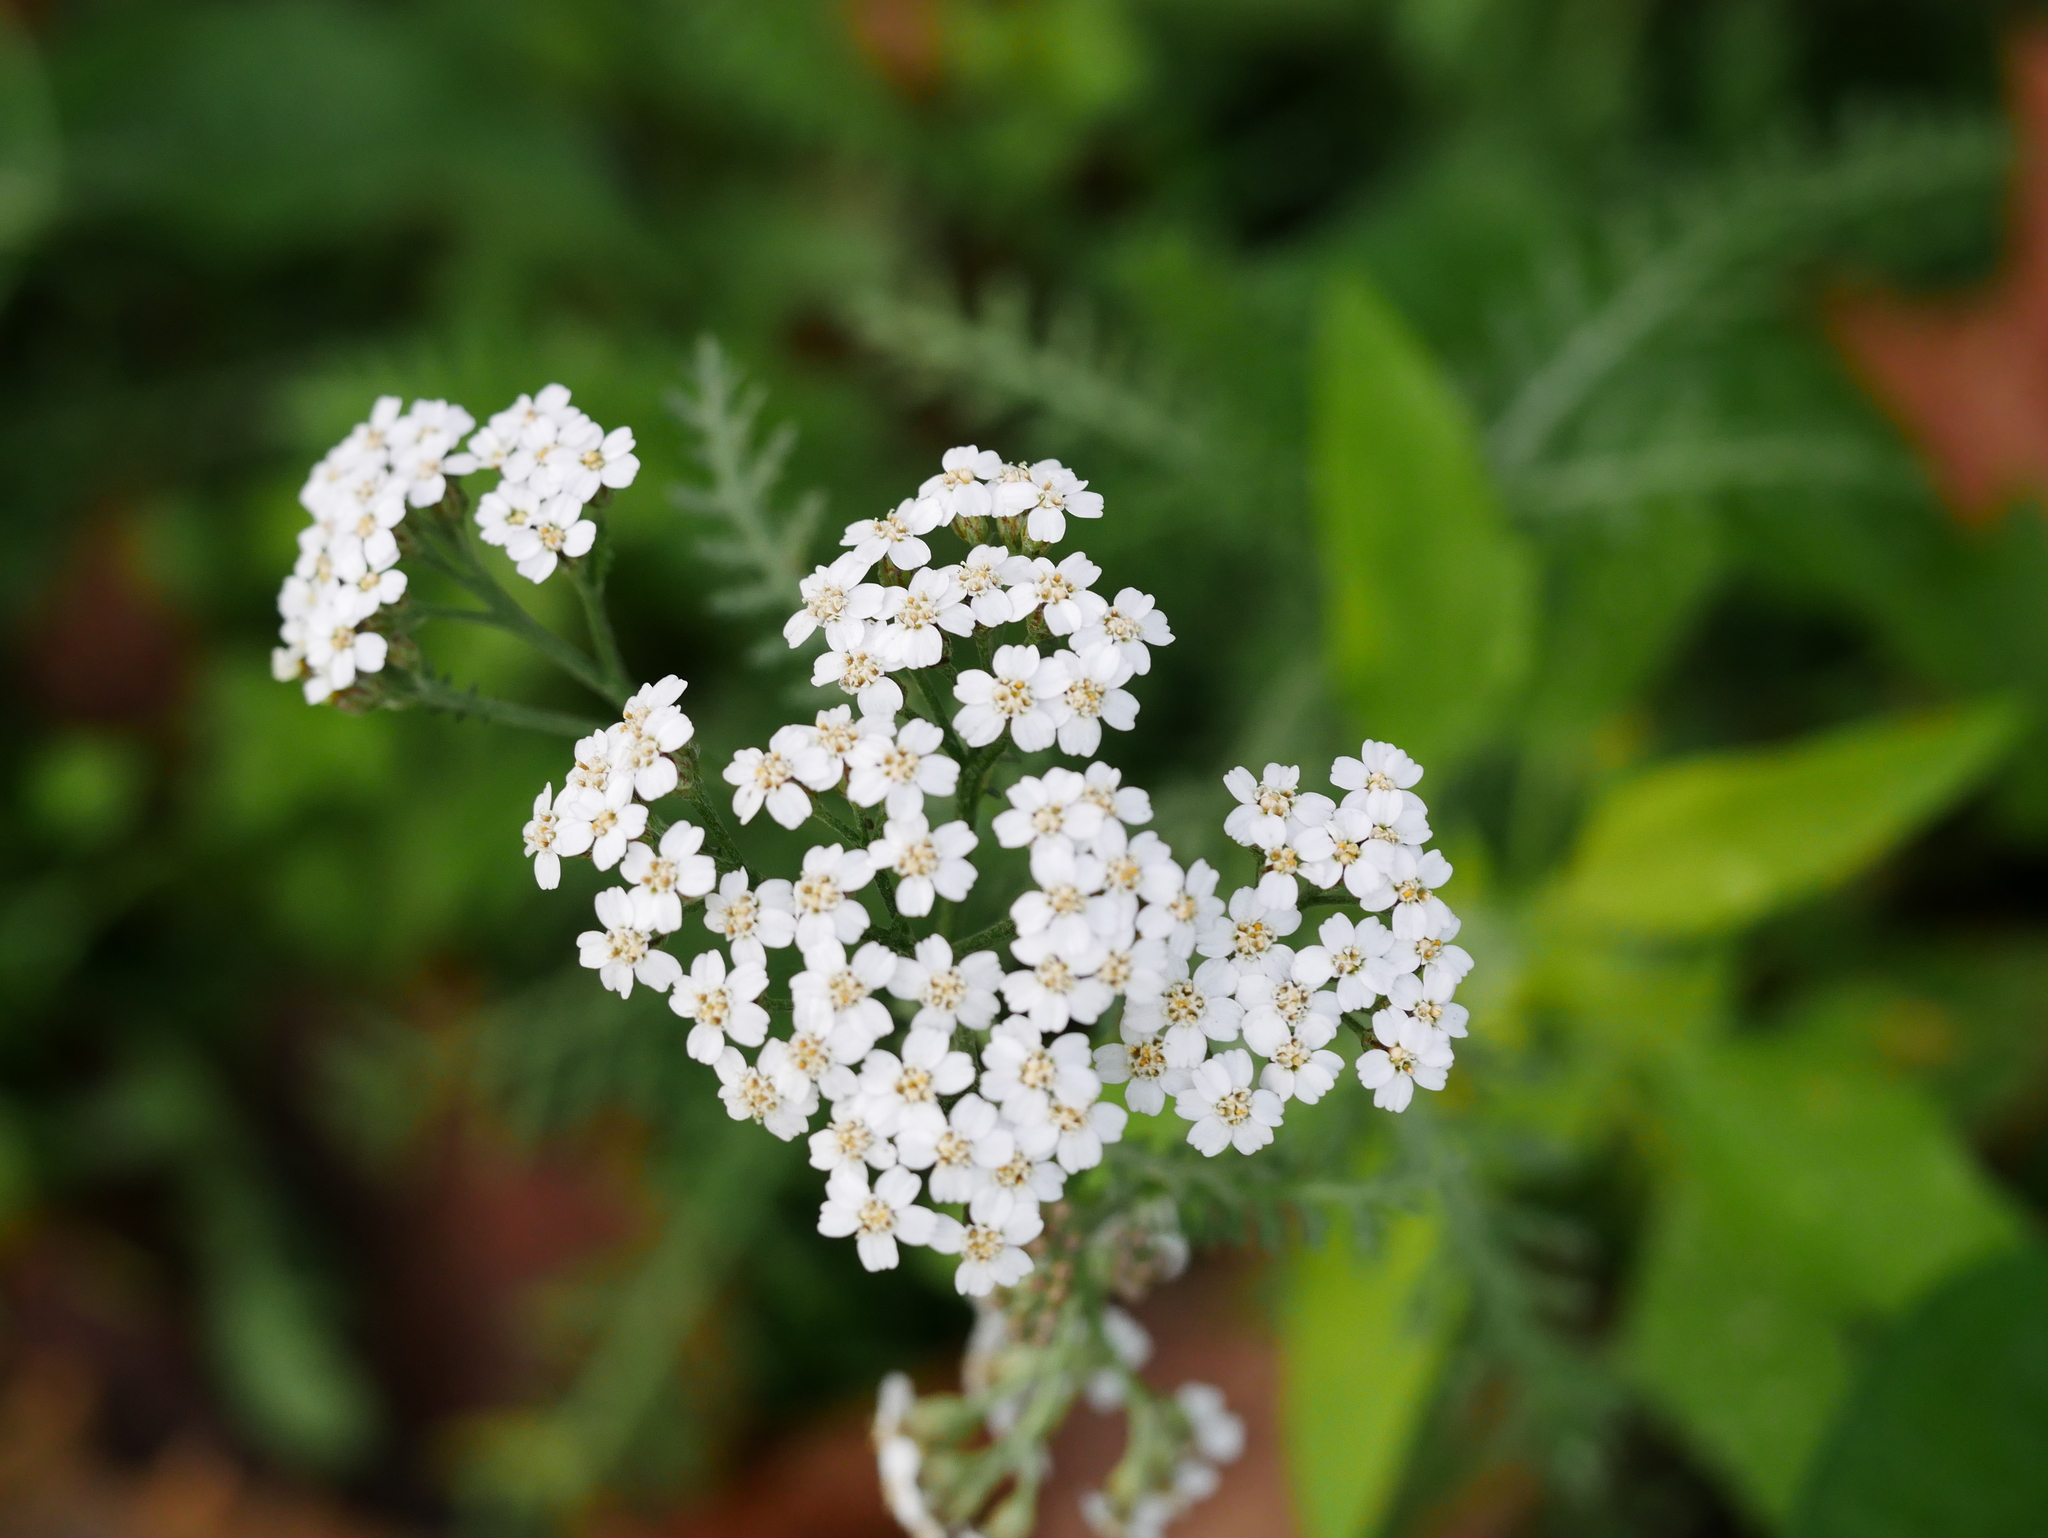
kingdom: Plantae
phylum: Tracheophyta
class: Magnoliopsida
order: Asterales
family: Asteraceae
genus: Achillea
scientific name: Achillea millefolium
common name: Yarrow
